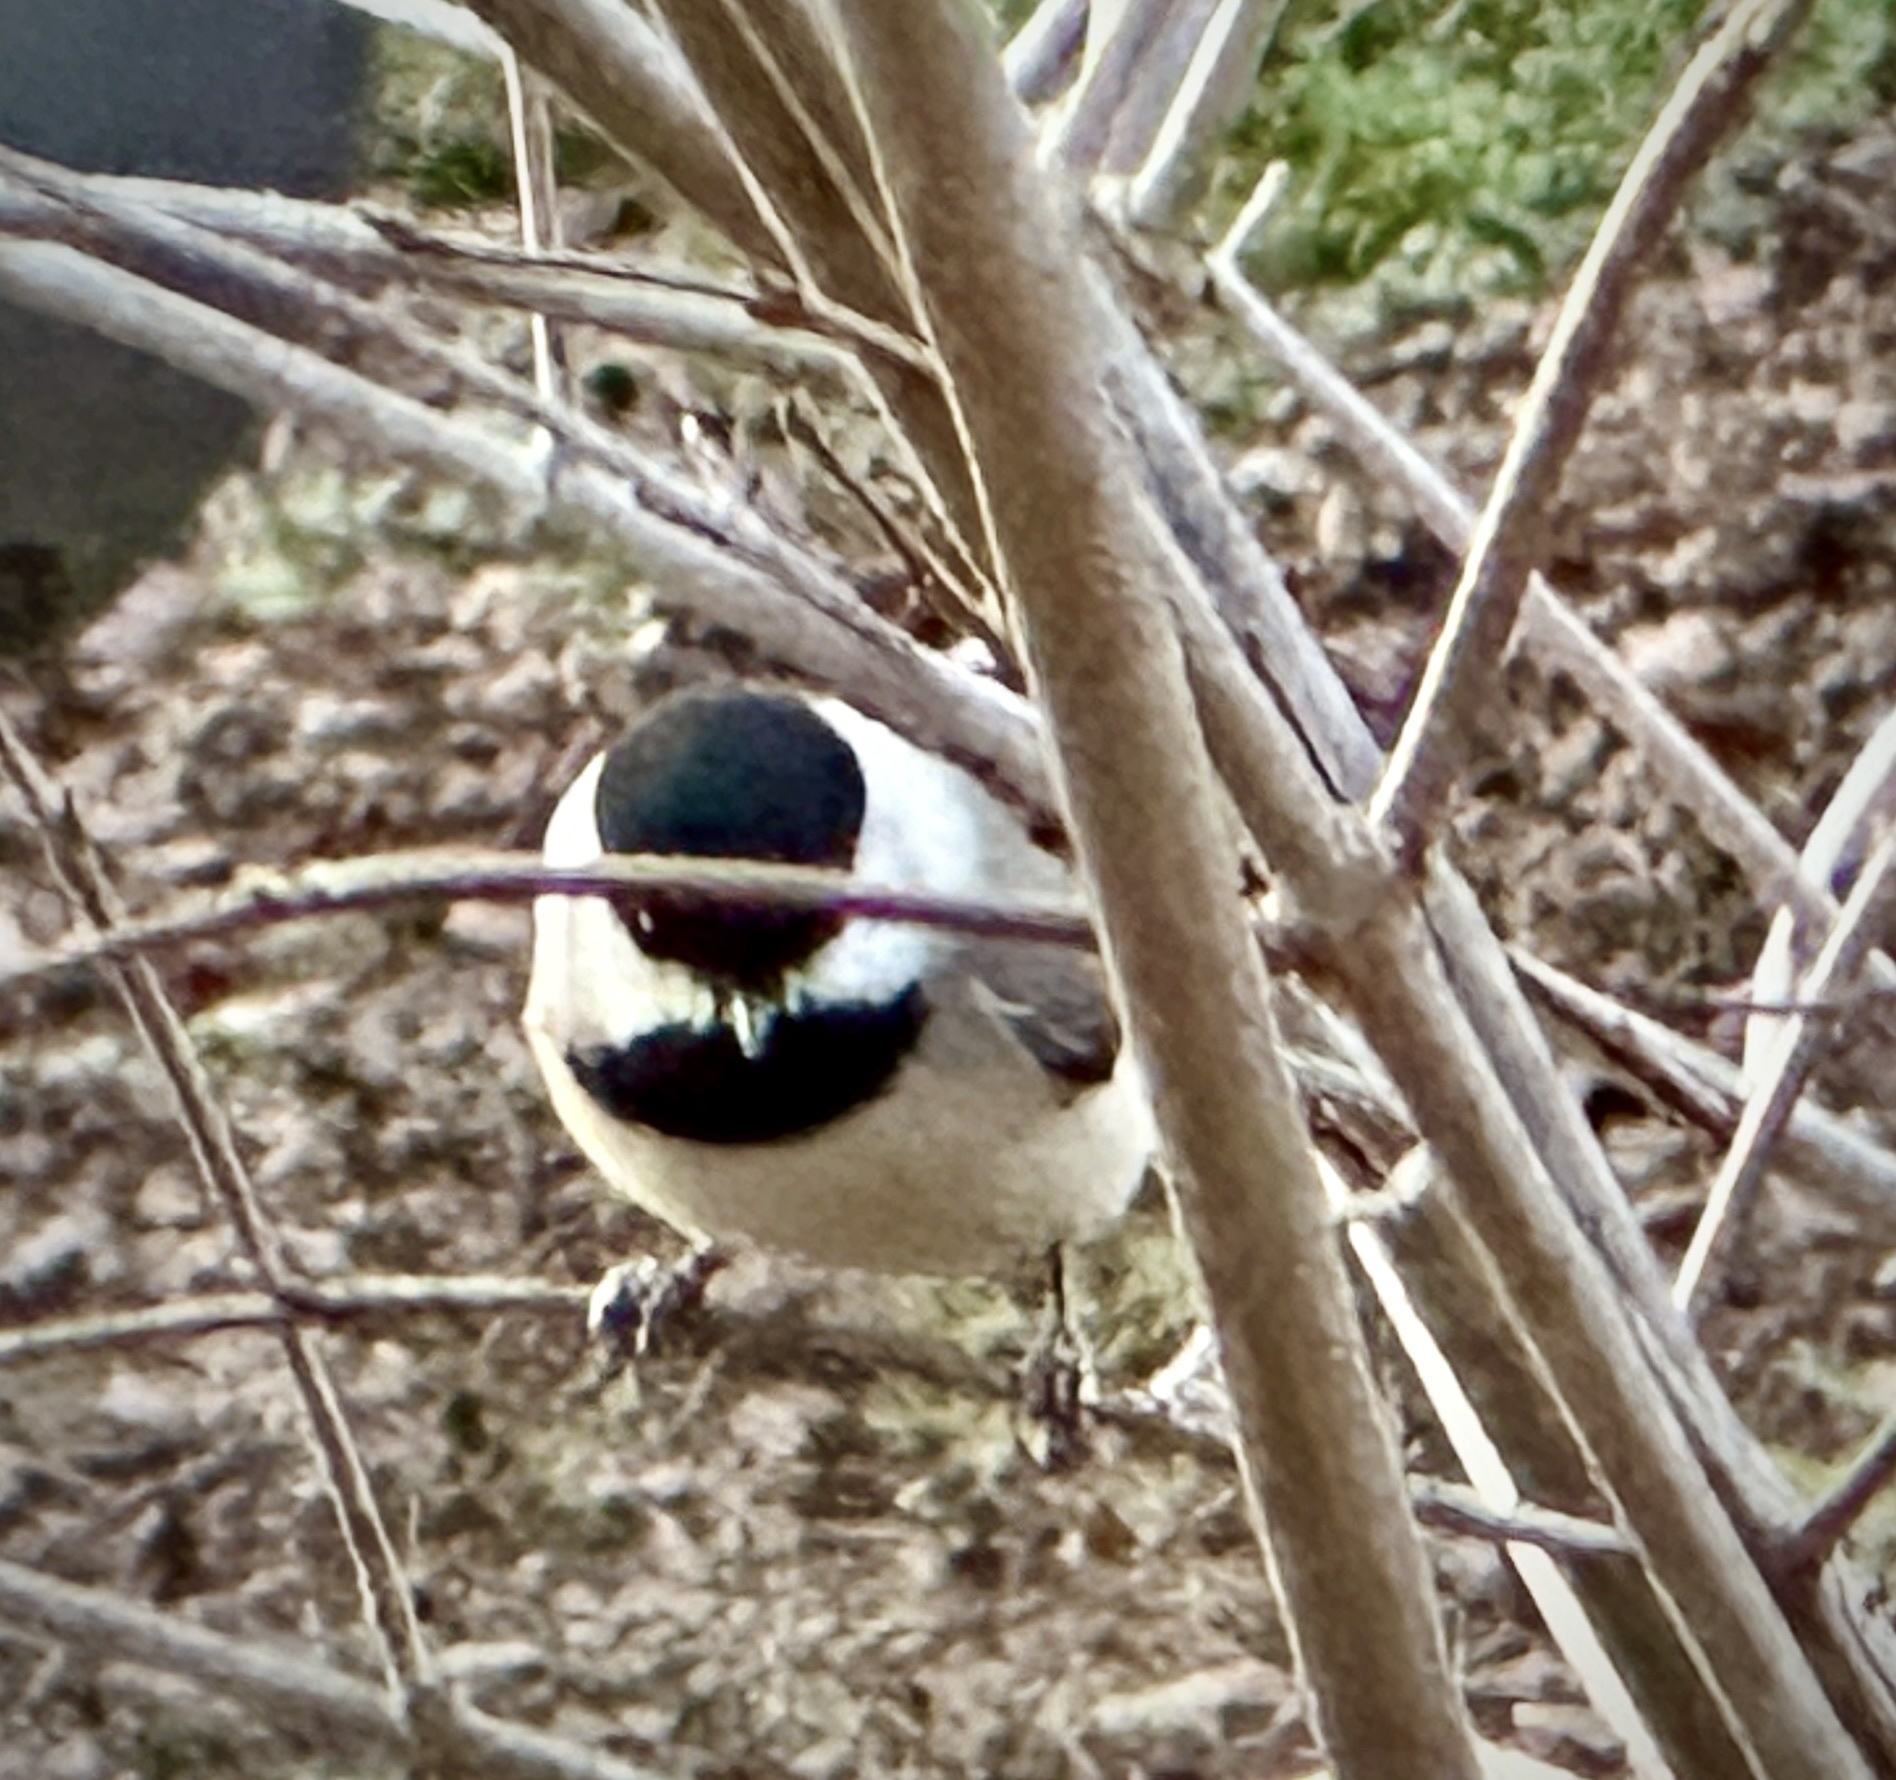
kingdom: Animalia
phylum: Chordata
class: Aves
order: Passeriformes
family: Paridae
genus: Poecile
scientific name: Poecile carolinensis
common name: Carolina chickadee
